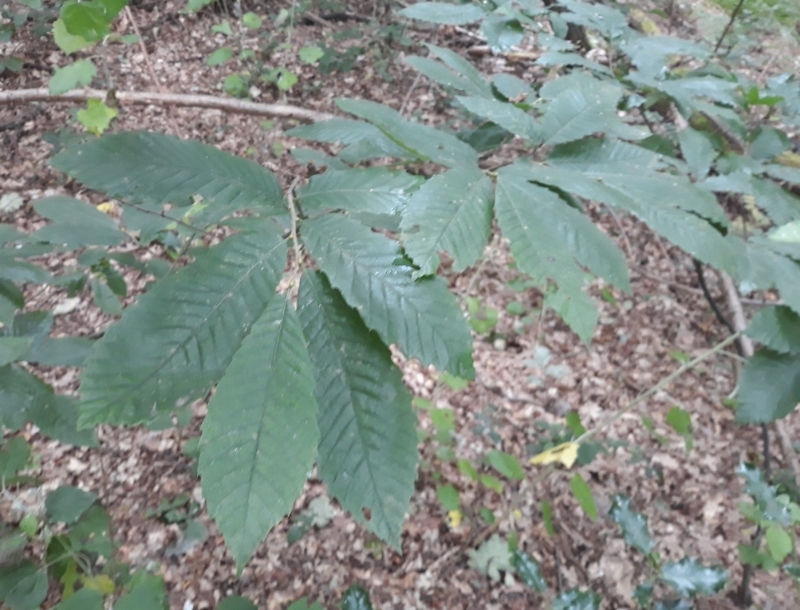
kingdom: Plantae
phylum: Tracheophyta
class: Magnoliopsida
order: Fagales
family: Fagaceae
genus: Castanea
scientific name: Castanea sativa
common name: Sweet chestnut
